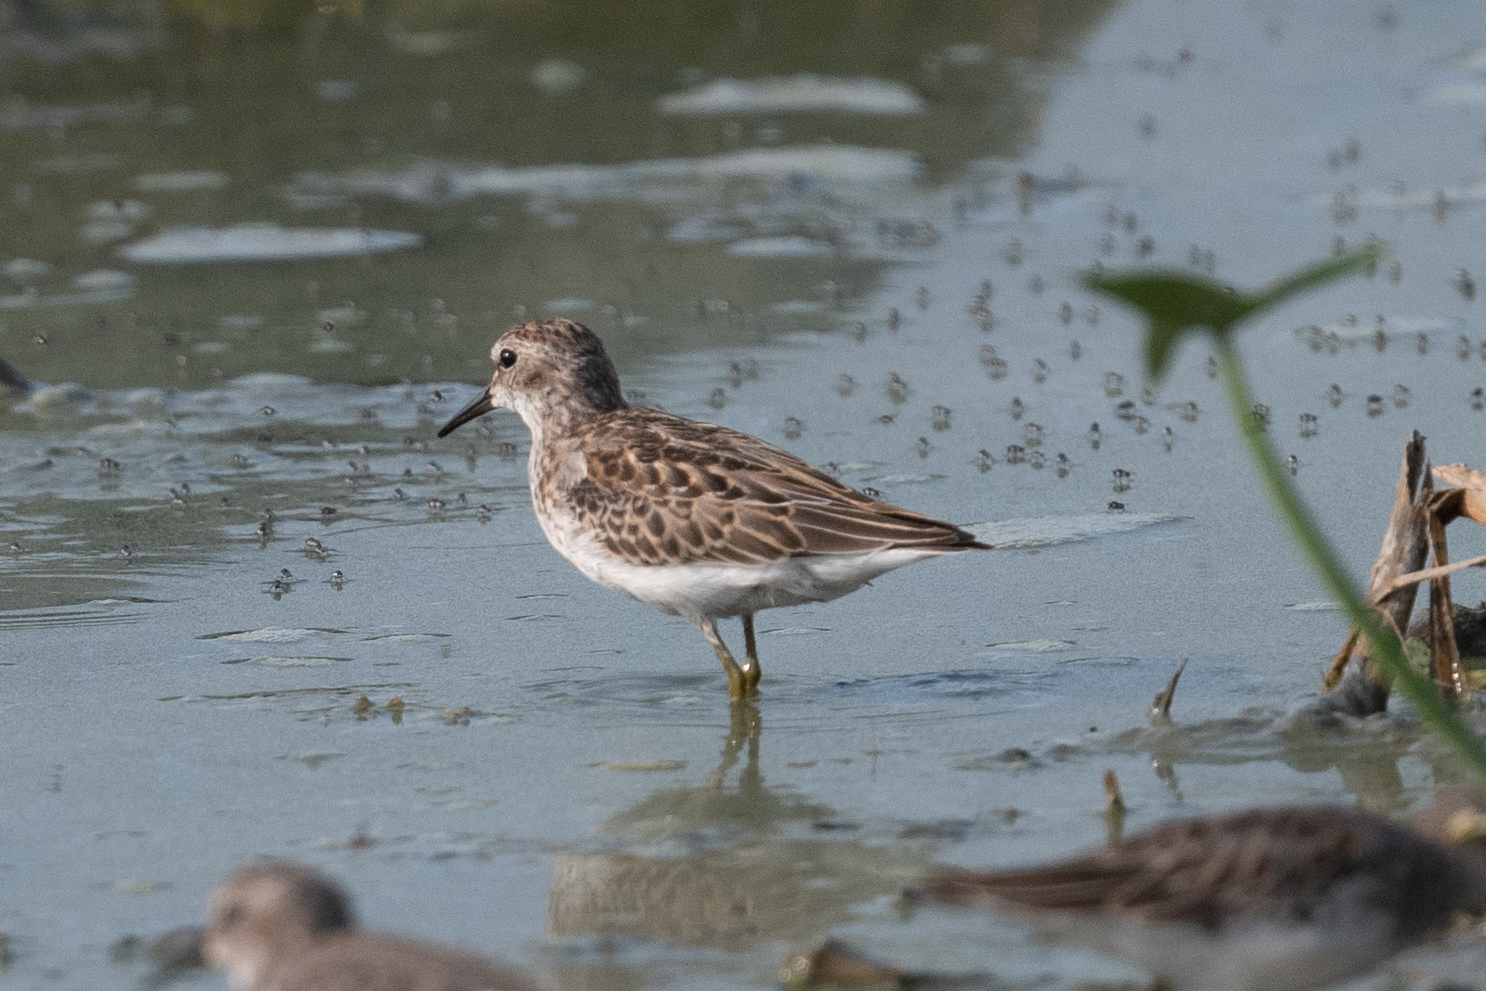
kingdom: Animalia
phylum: Chordata
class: Aves
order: Charadriiformes
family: Scolopacidae
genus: Calidris
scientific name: Calidris minutilla
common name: Least sandpiper
